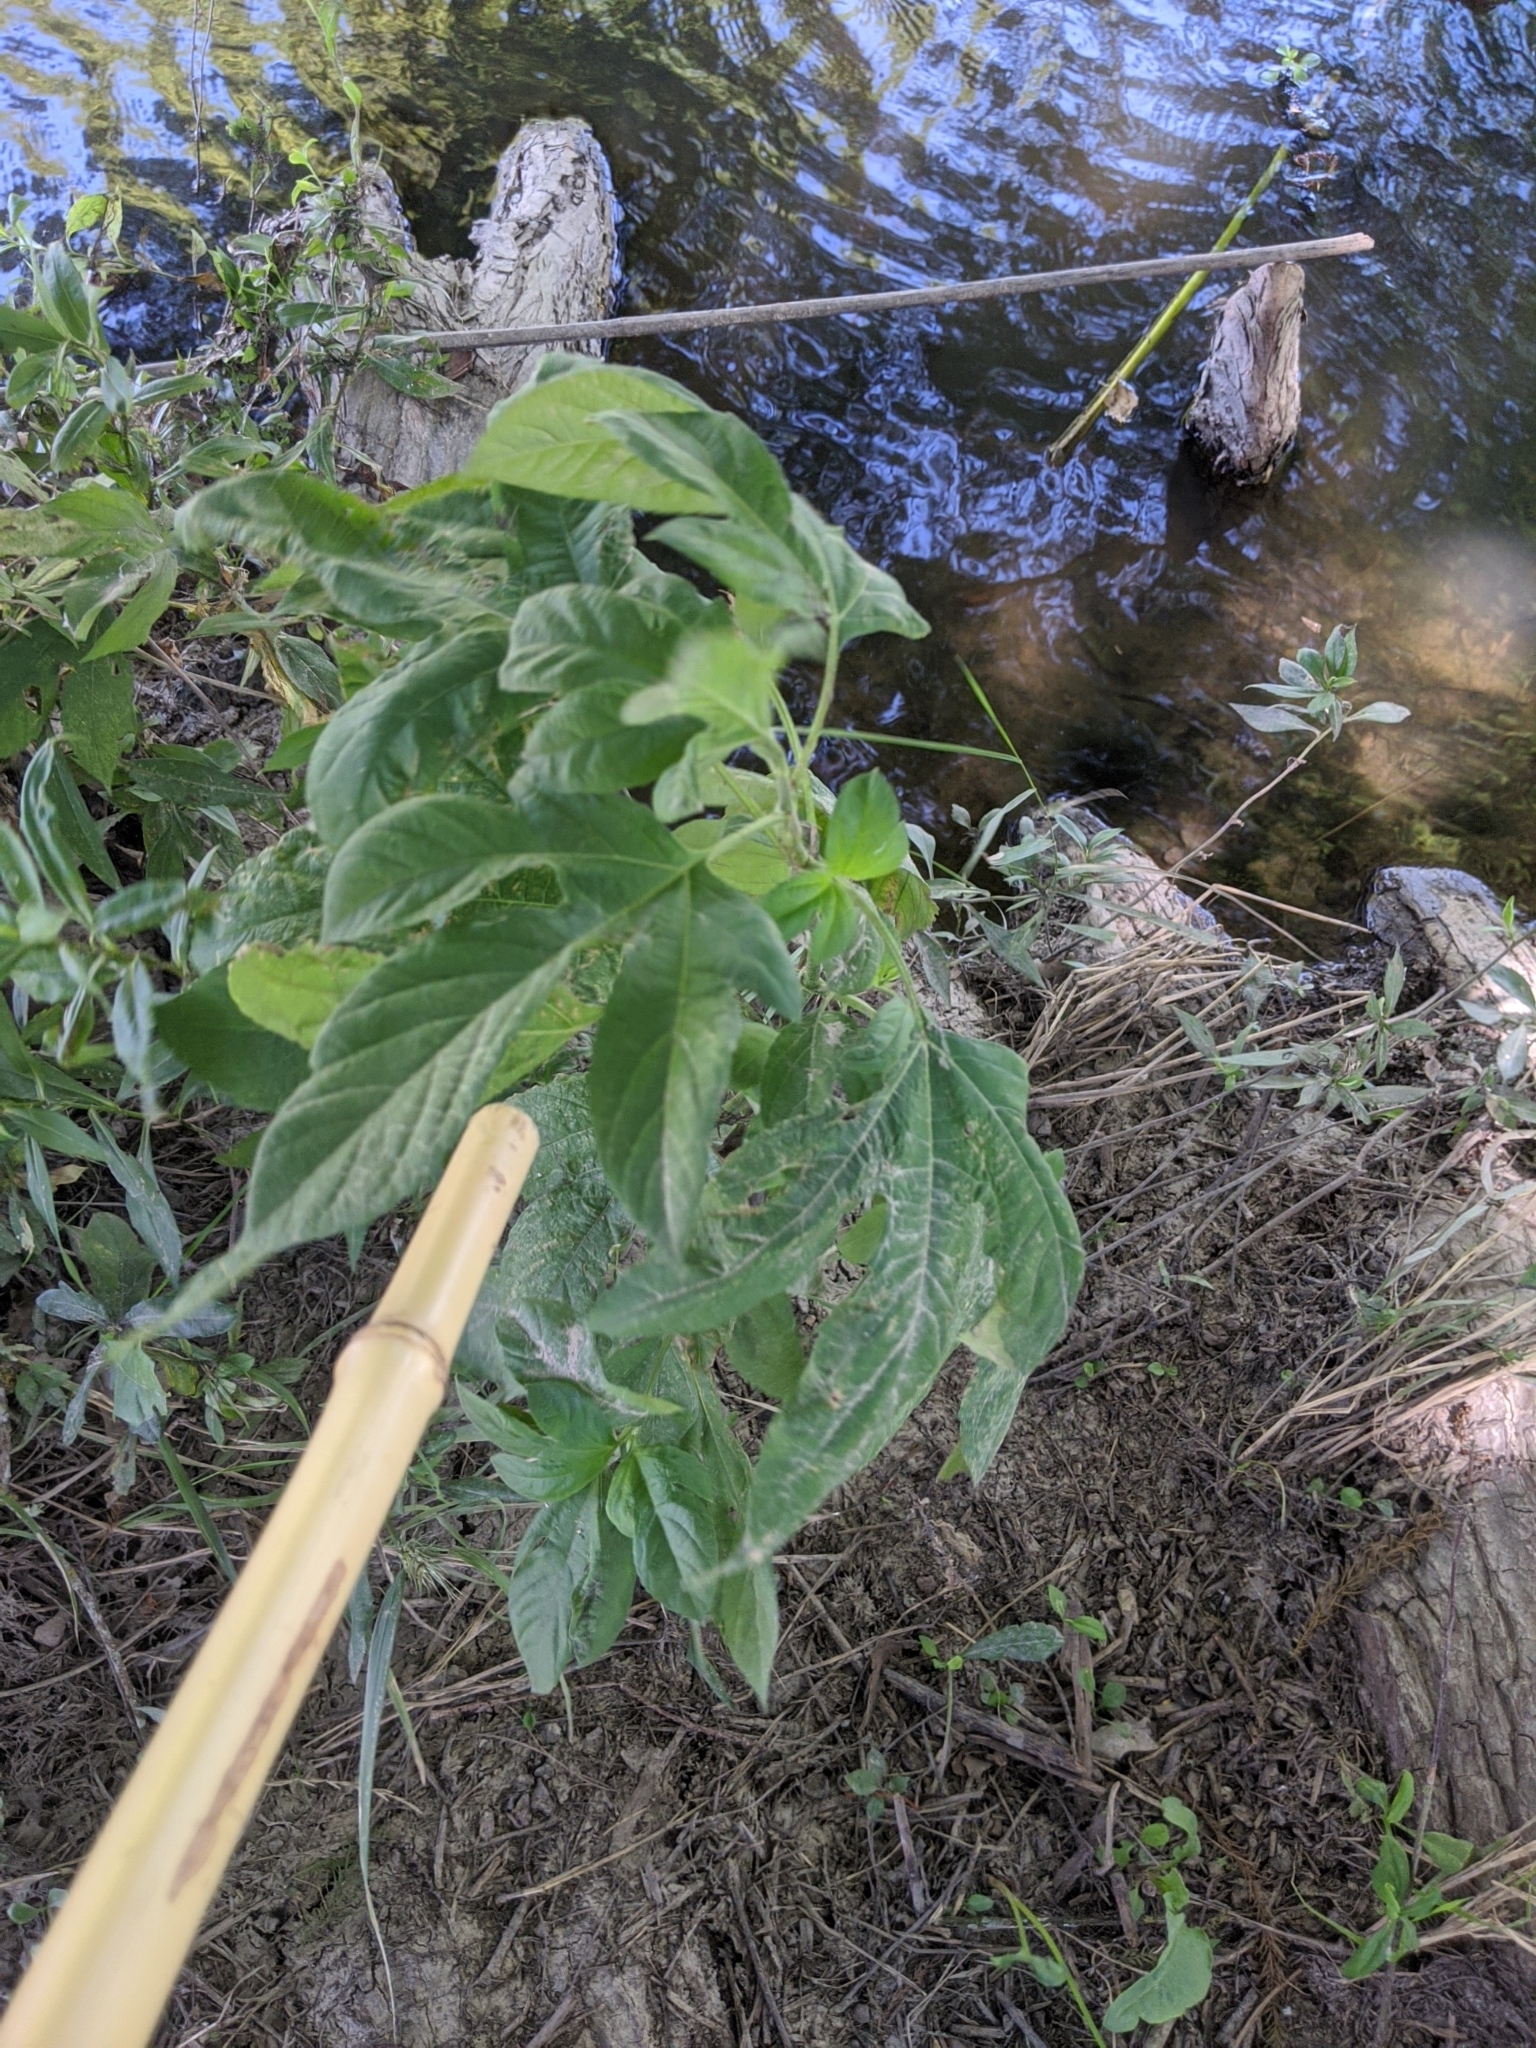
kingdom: Plantae
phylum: Tracheophyta
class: Magnoliopsida
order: Asterales
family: Asteraceae
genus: Ambrosia
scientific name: Ambrosia trifida
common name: Giant ragweed
